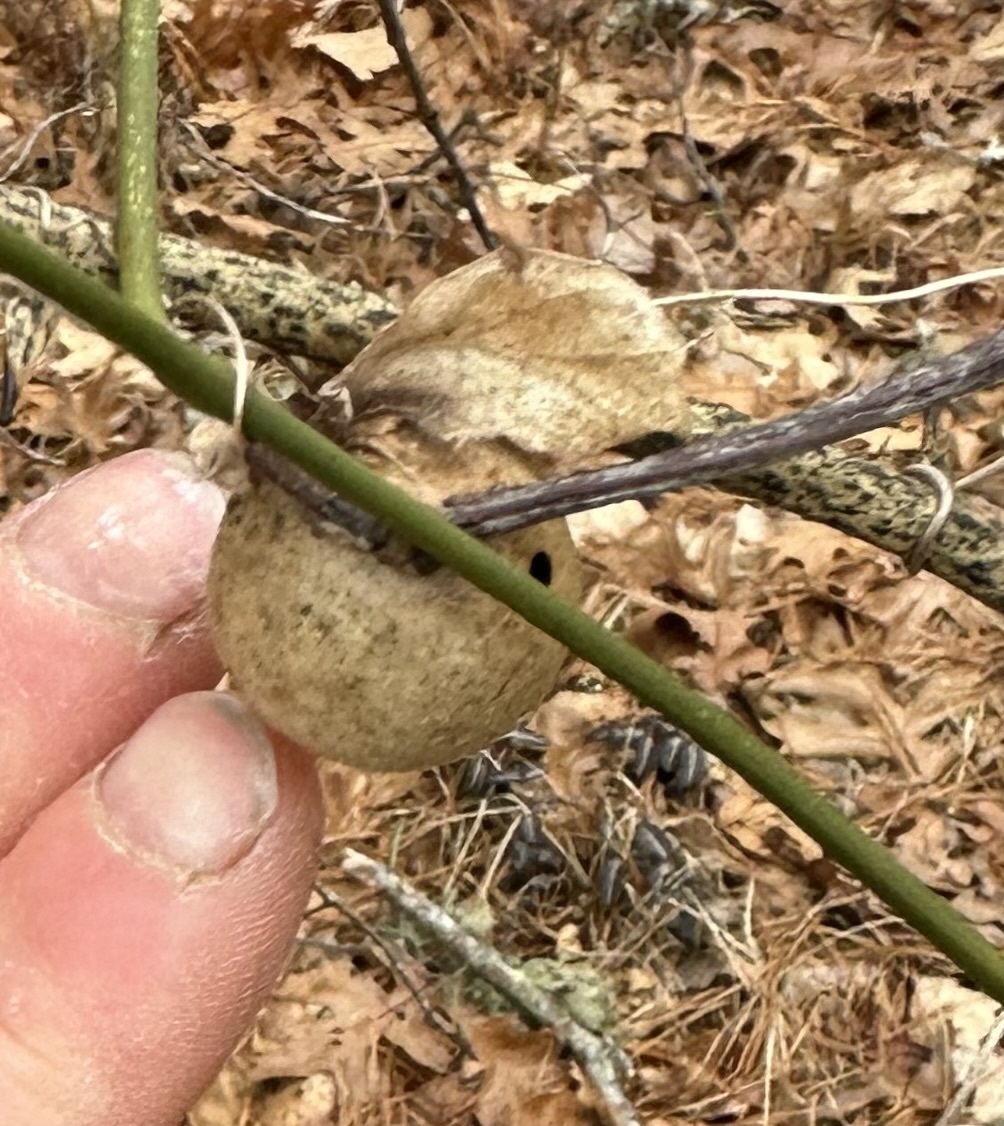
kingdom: Animalia
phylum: Arthropoda
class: Insecta
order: Hymenoptera
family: Cynipidae
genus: Amphibolips
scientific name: Amphibolips
